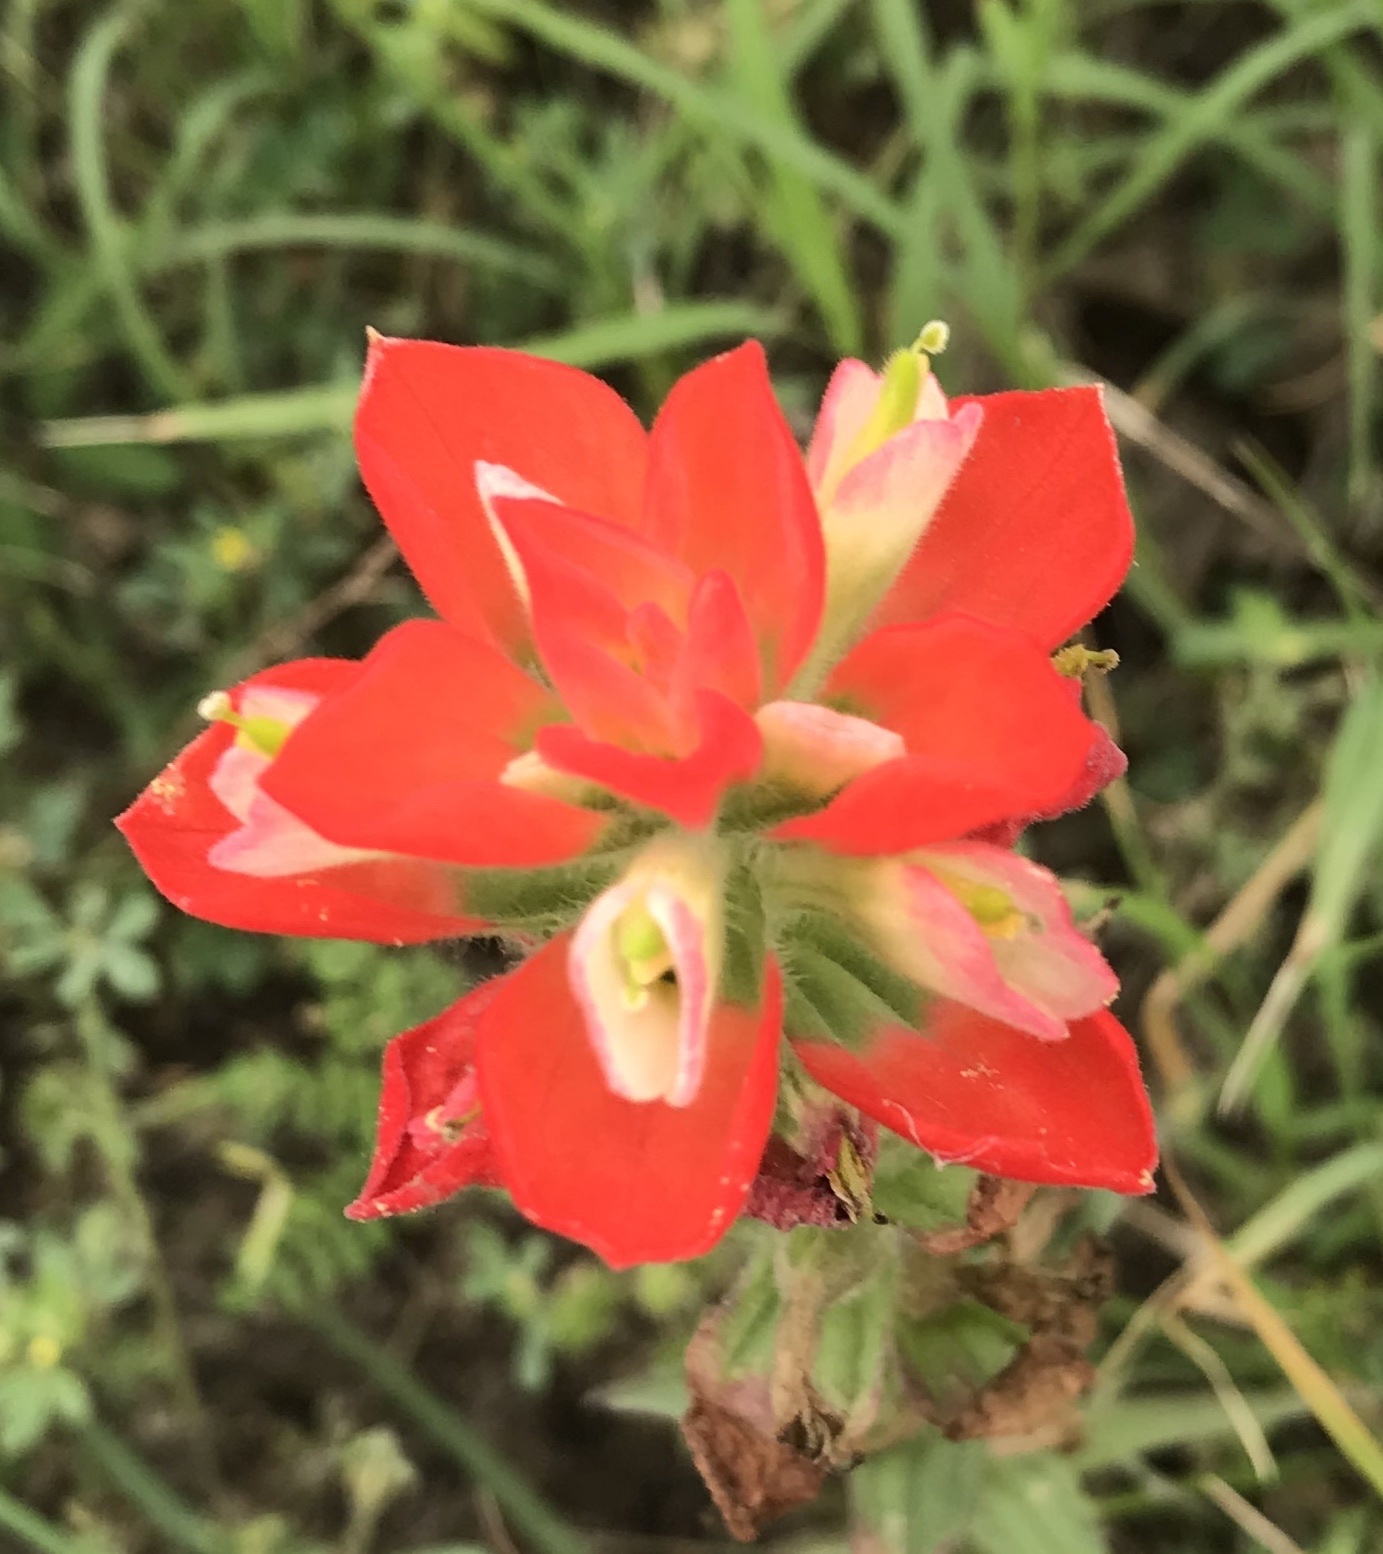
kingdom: Plantae
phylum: Tracheophyta
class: Magnoliopsida
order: Lamiales
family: Orobanchaceae
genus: Castilleja
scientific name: Castilleja indivisa
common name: Texas paintbrush
